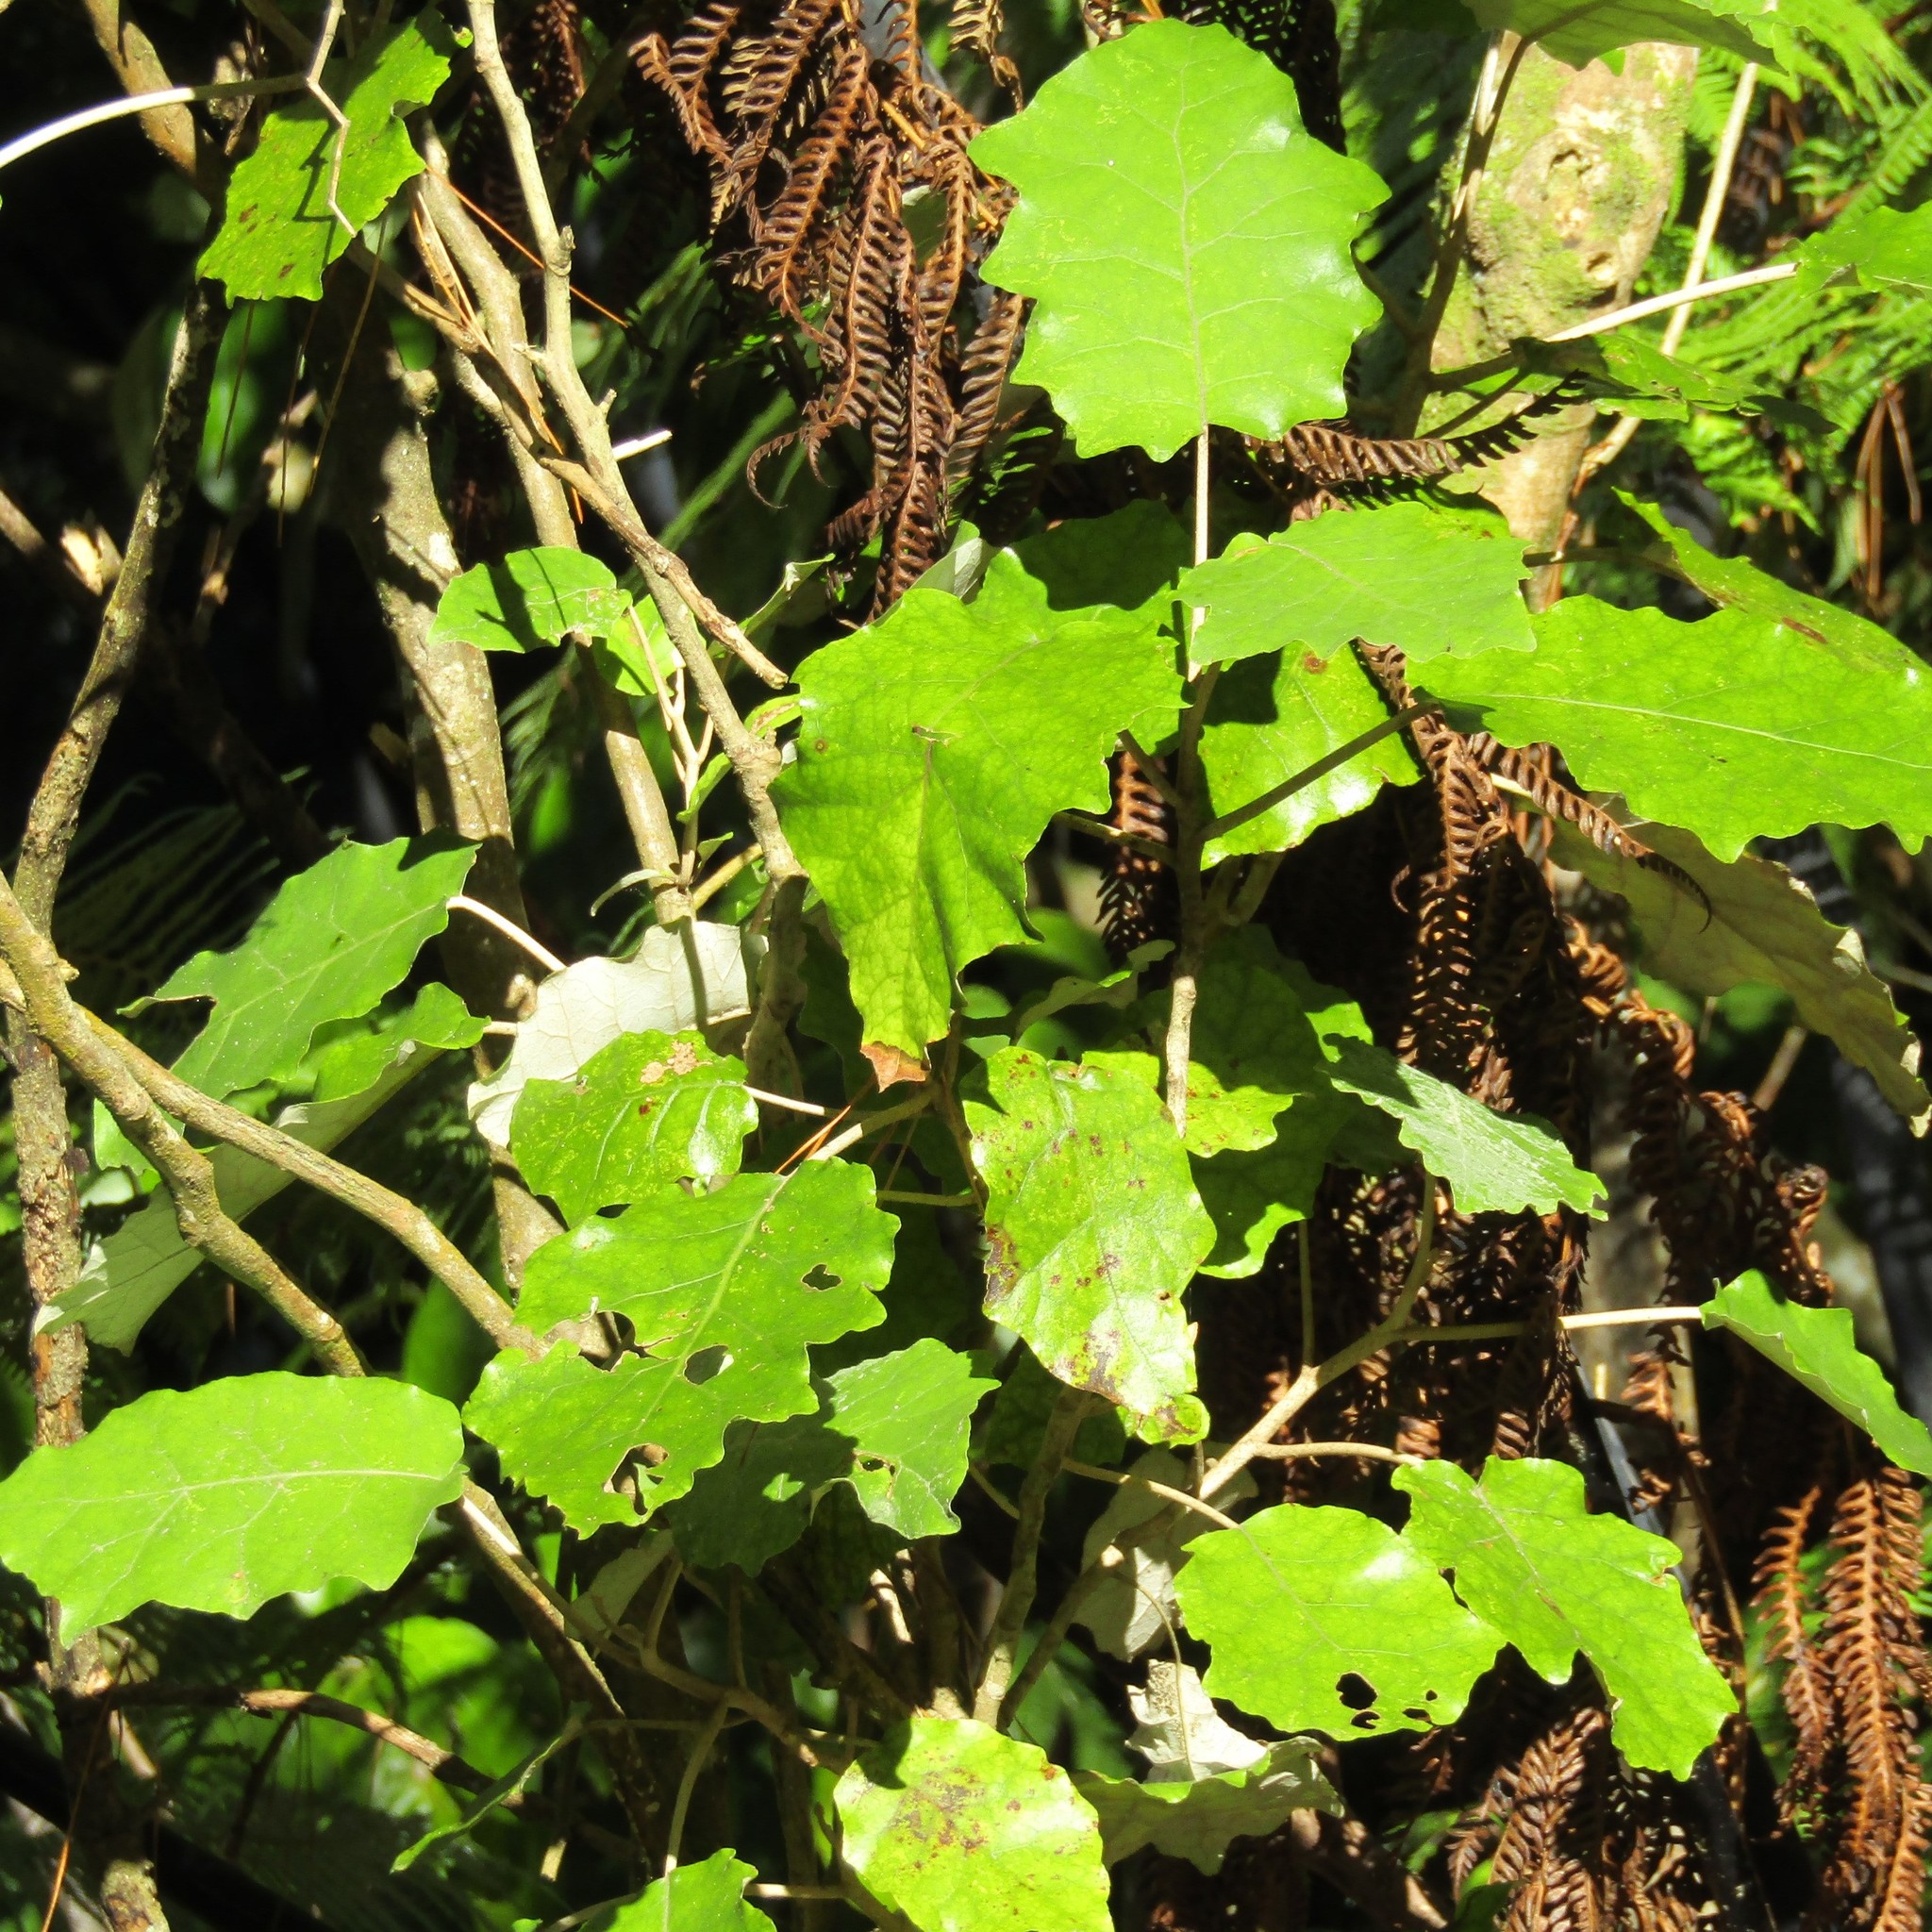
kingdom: Plantae
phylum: Tracheophyta
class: Magnoliopsida
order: Asterales
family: Asteraceae
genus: Brachyglottis
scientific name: Brachyglottis repanda
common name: Hedge ragwort
